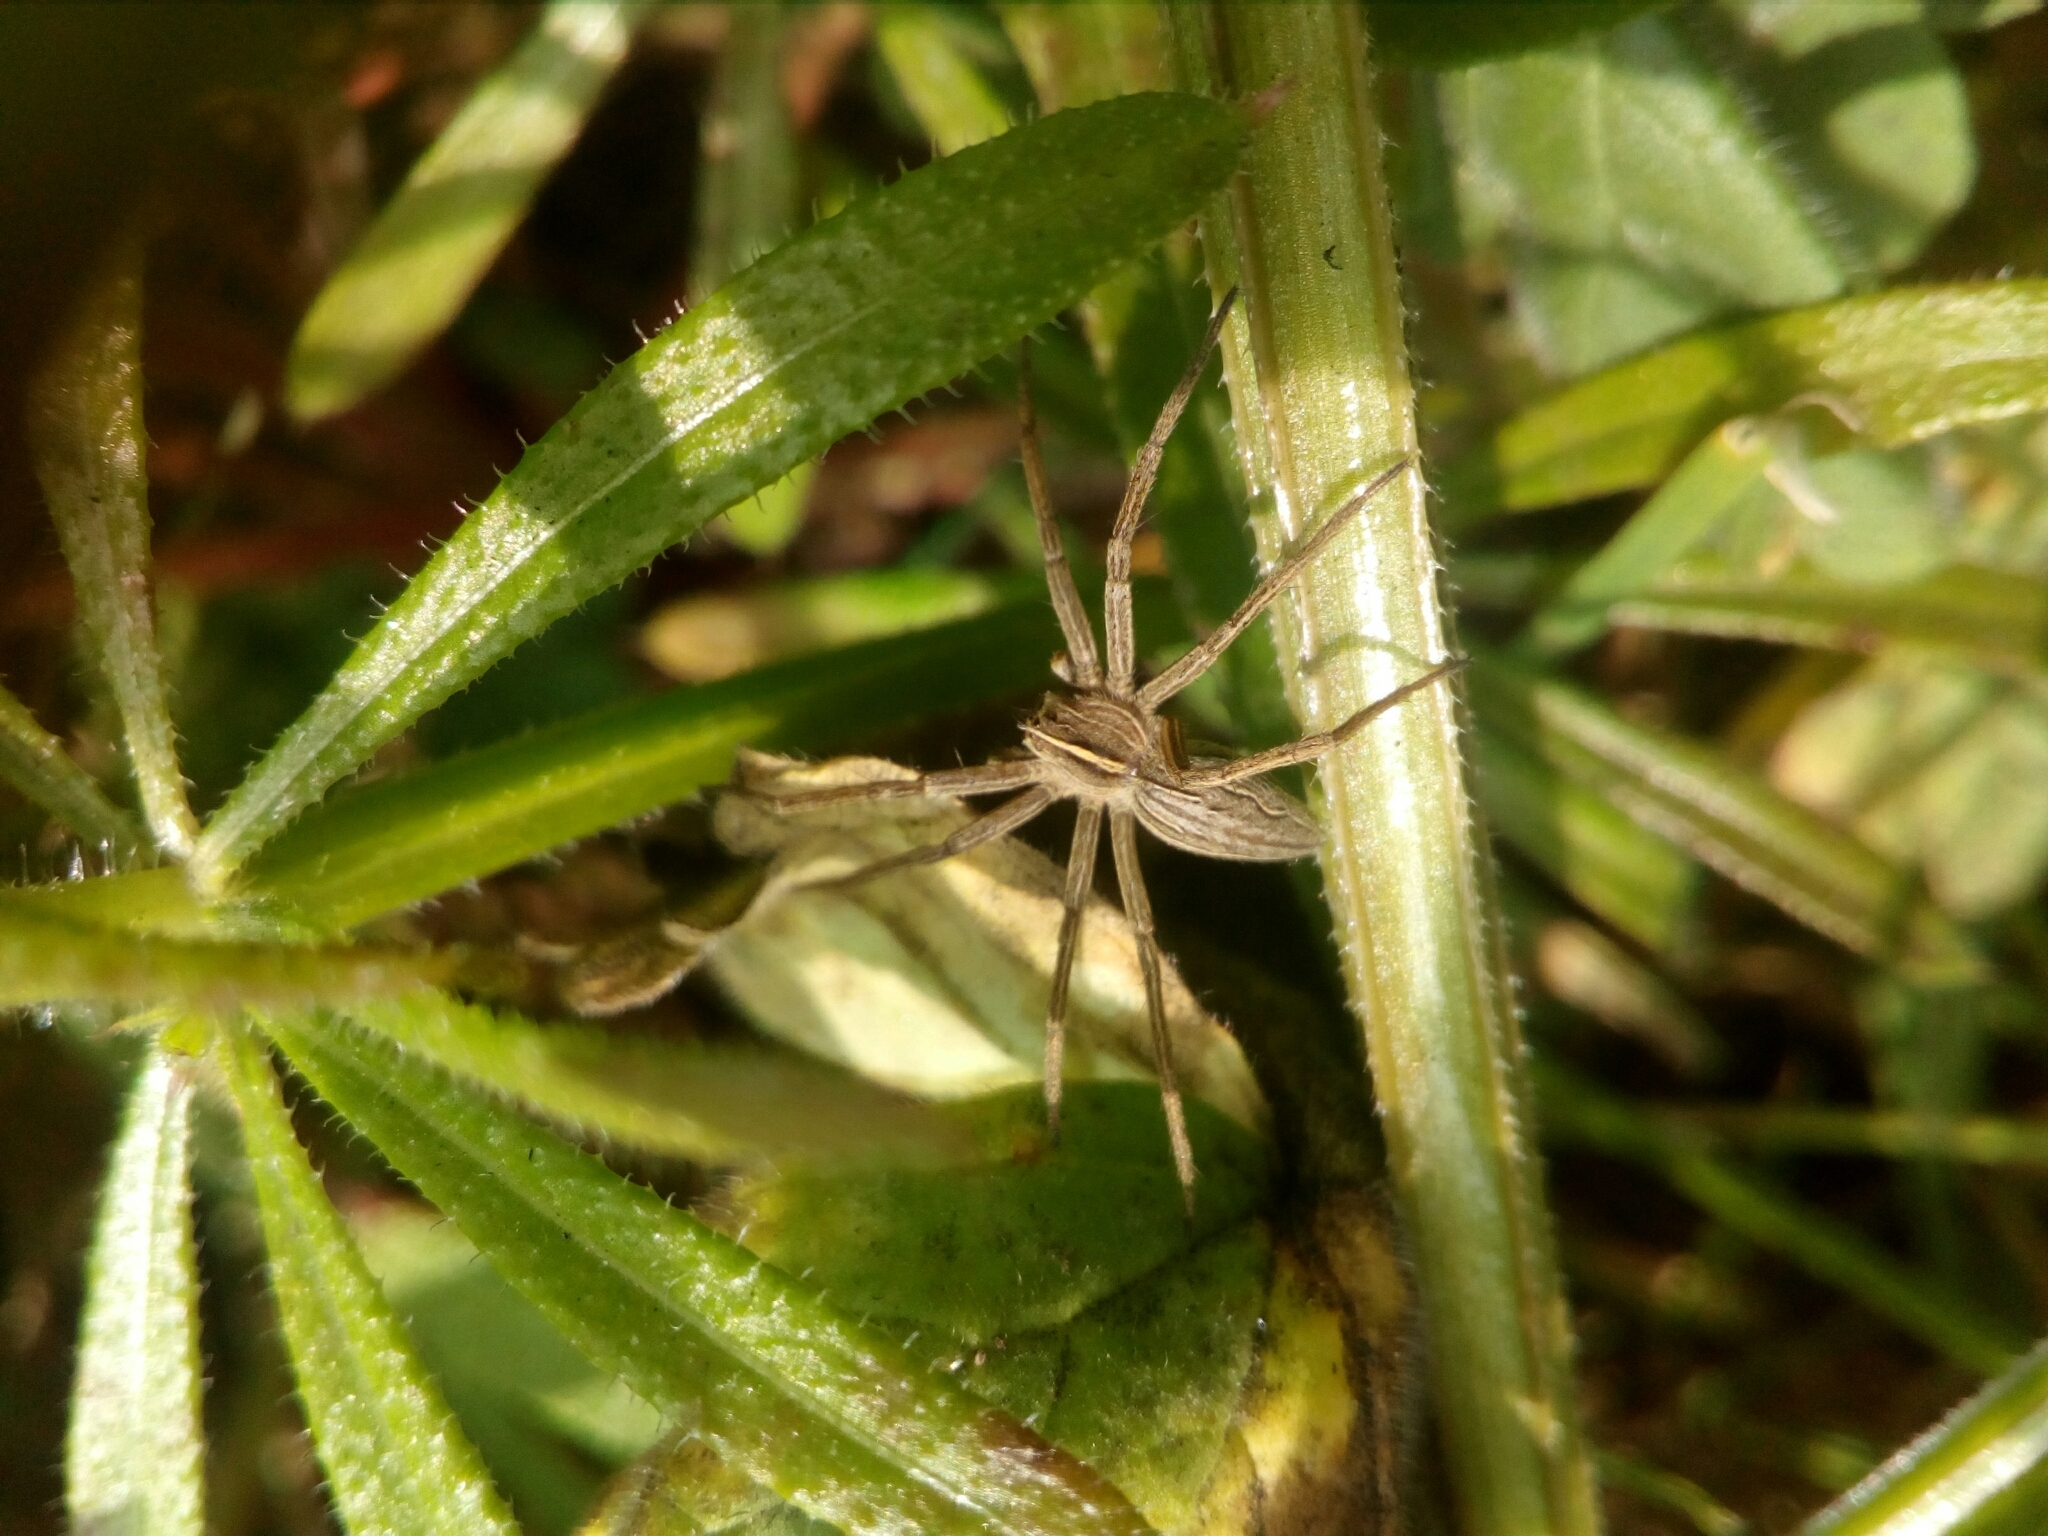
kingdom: Animalia
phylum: Arthropoda
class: Arachnida
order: Araneae
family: Pisauridae
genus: Pisaura
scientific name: Pisaura mirabilis
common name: Tent spider
